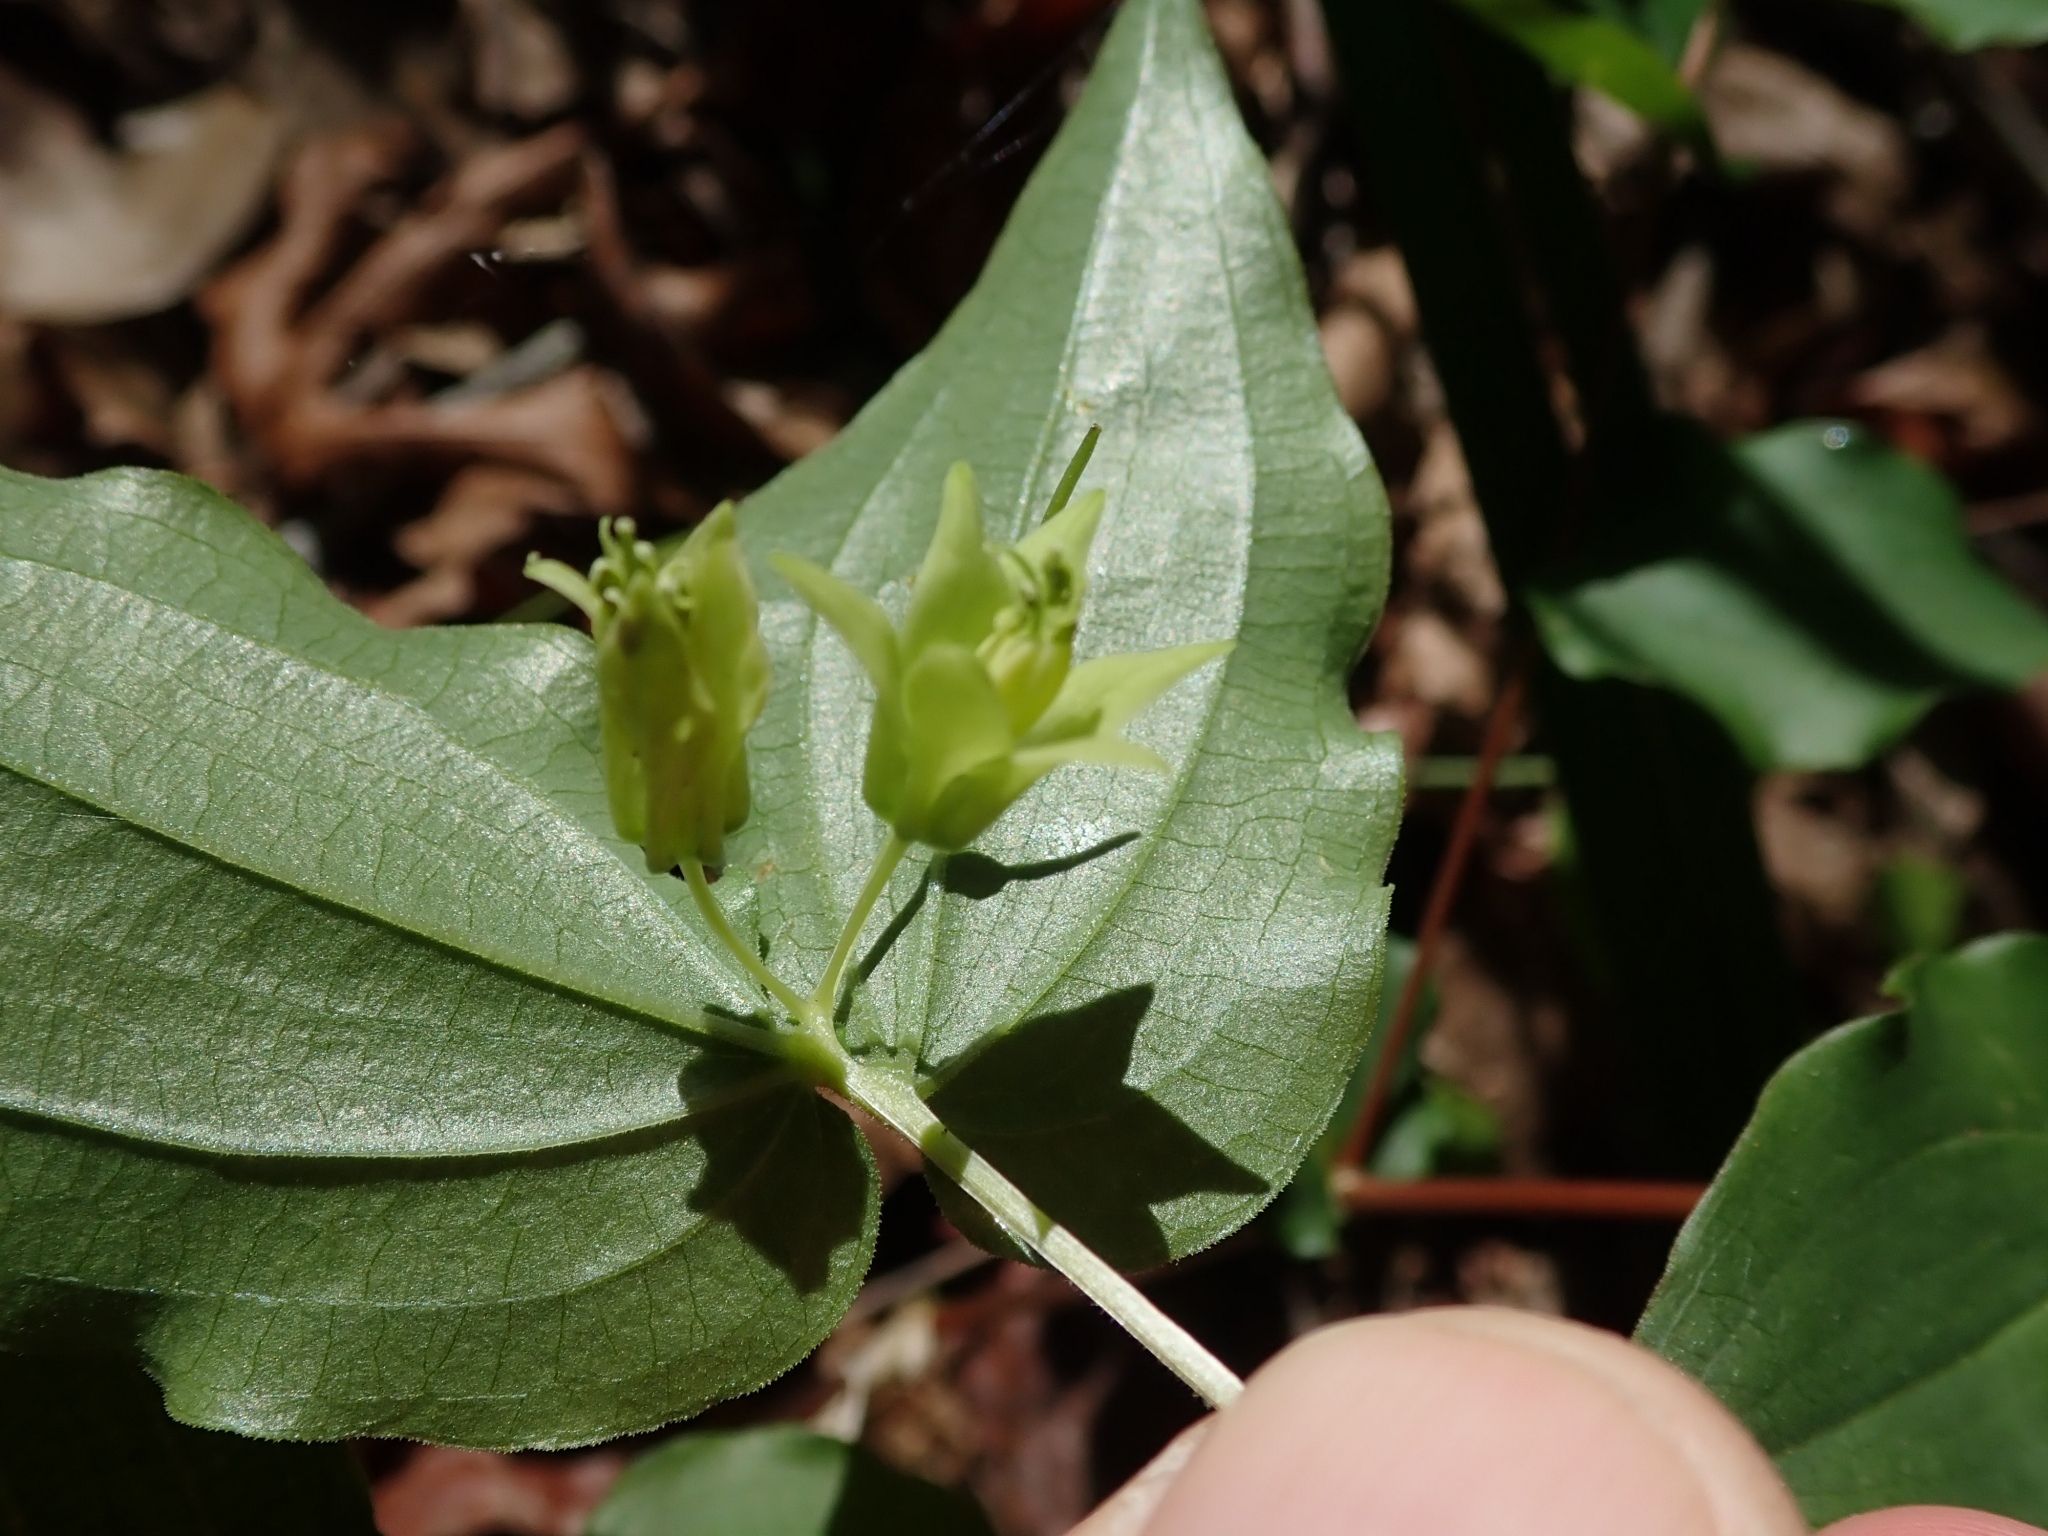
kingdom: Plantae
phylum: Tracheophyta
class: Liliopsida
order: Liliales
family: Liliaceae
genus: Prosartes
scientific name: Prosartes hookeri
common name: Fairy-bells
